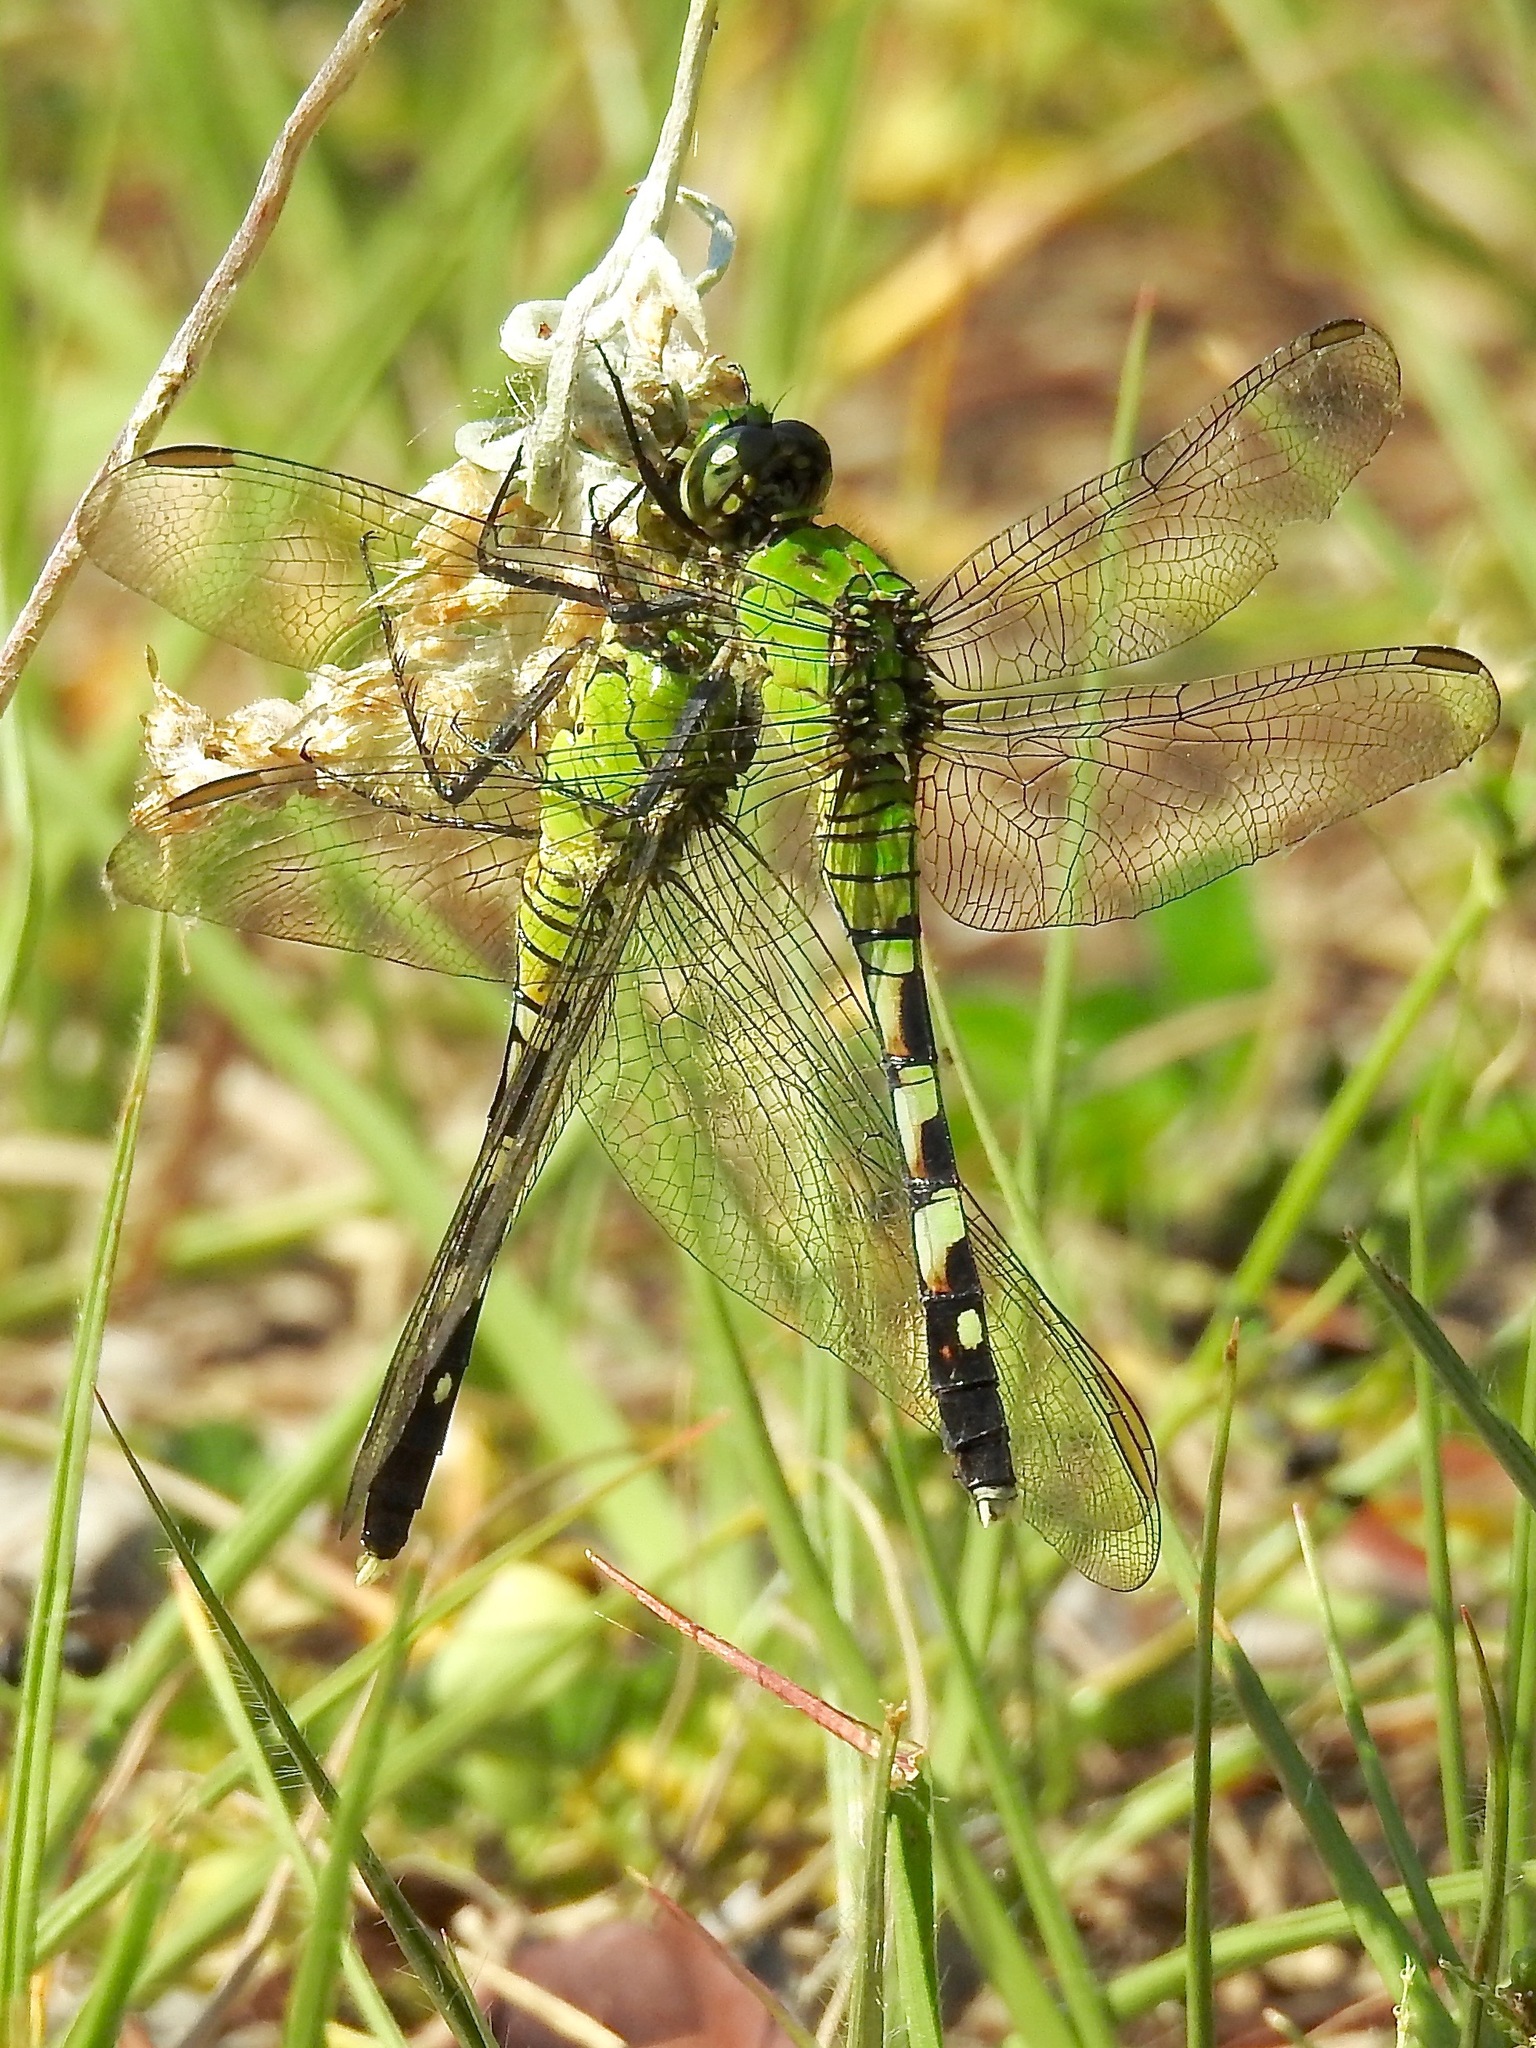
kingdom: Animalia
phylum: Arthropoda
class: Insecta
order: Odonata
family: Libellulidae
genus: Erythemis
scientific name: Erythemis simplicicollis
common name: Eastern pondhawk
